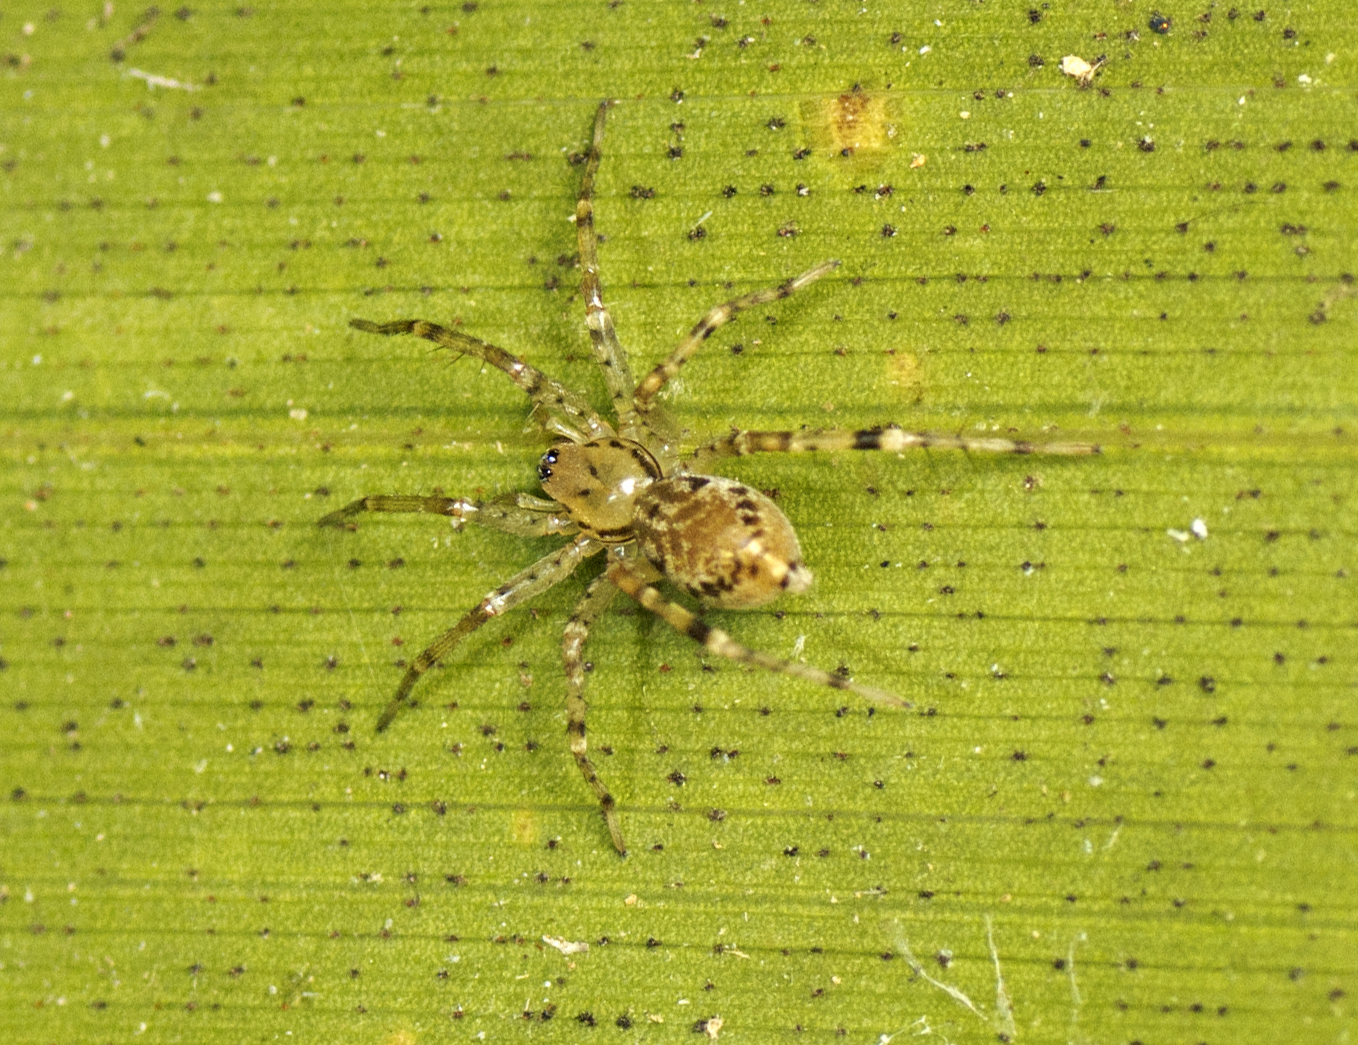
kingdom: Animalia
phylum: Arthropoda
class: Arachnida
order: Araneae
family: Corinnidae
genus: Copa
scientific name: Copa kabana
